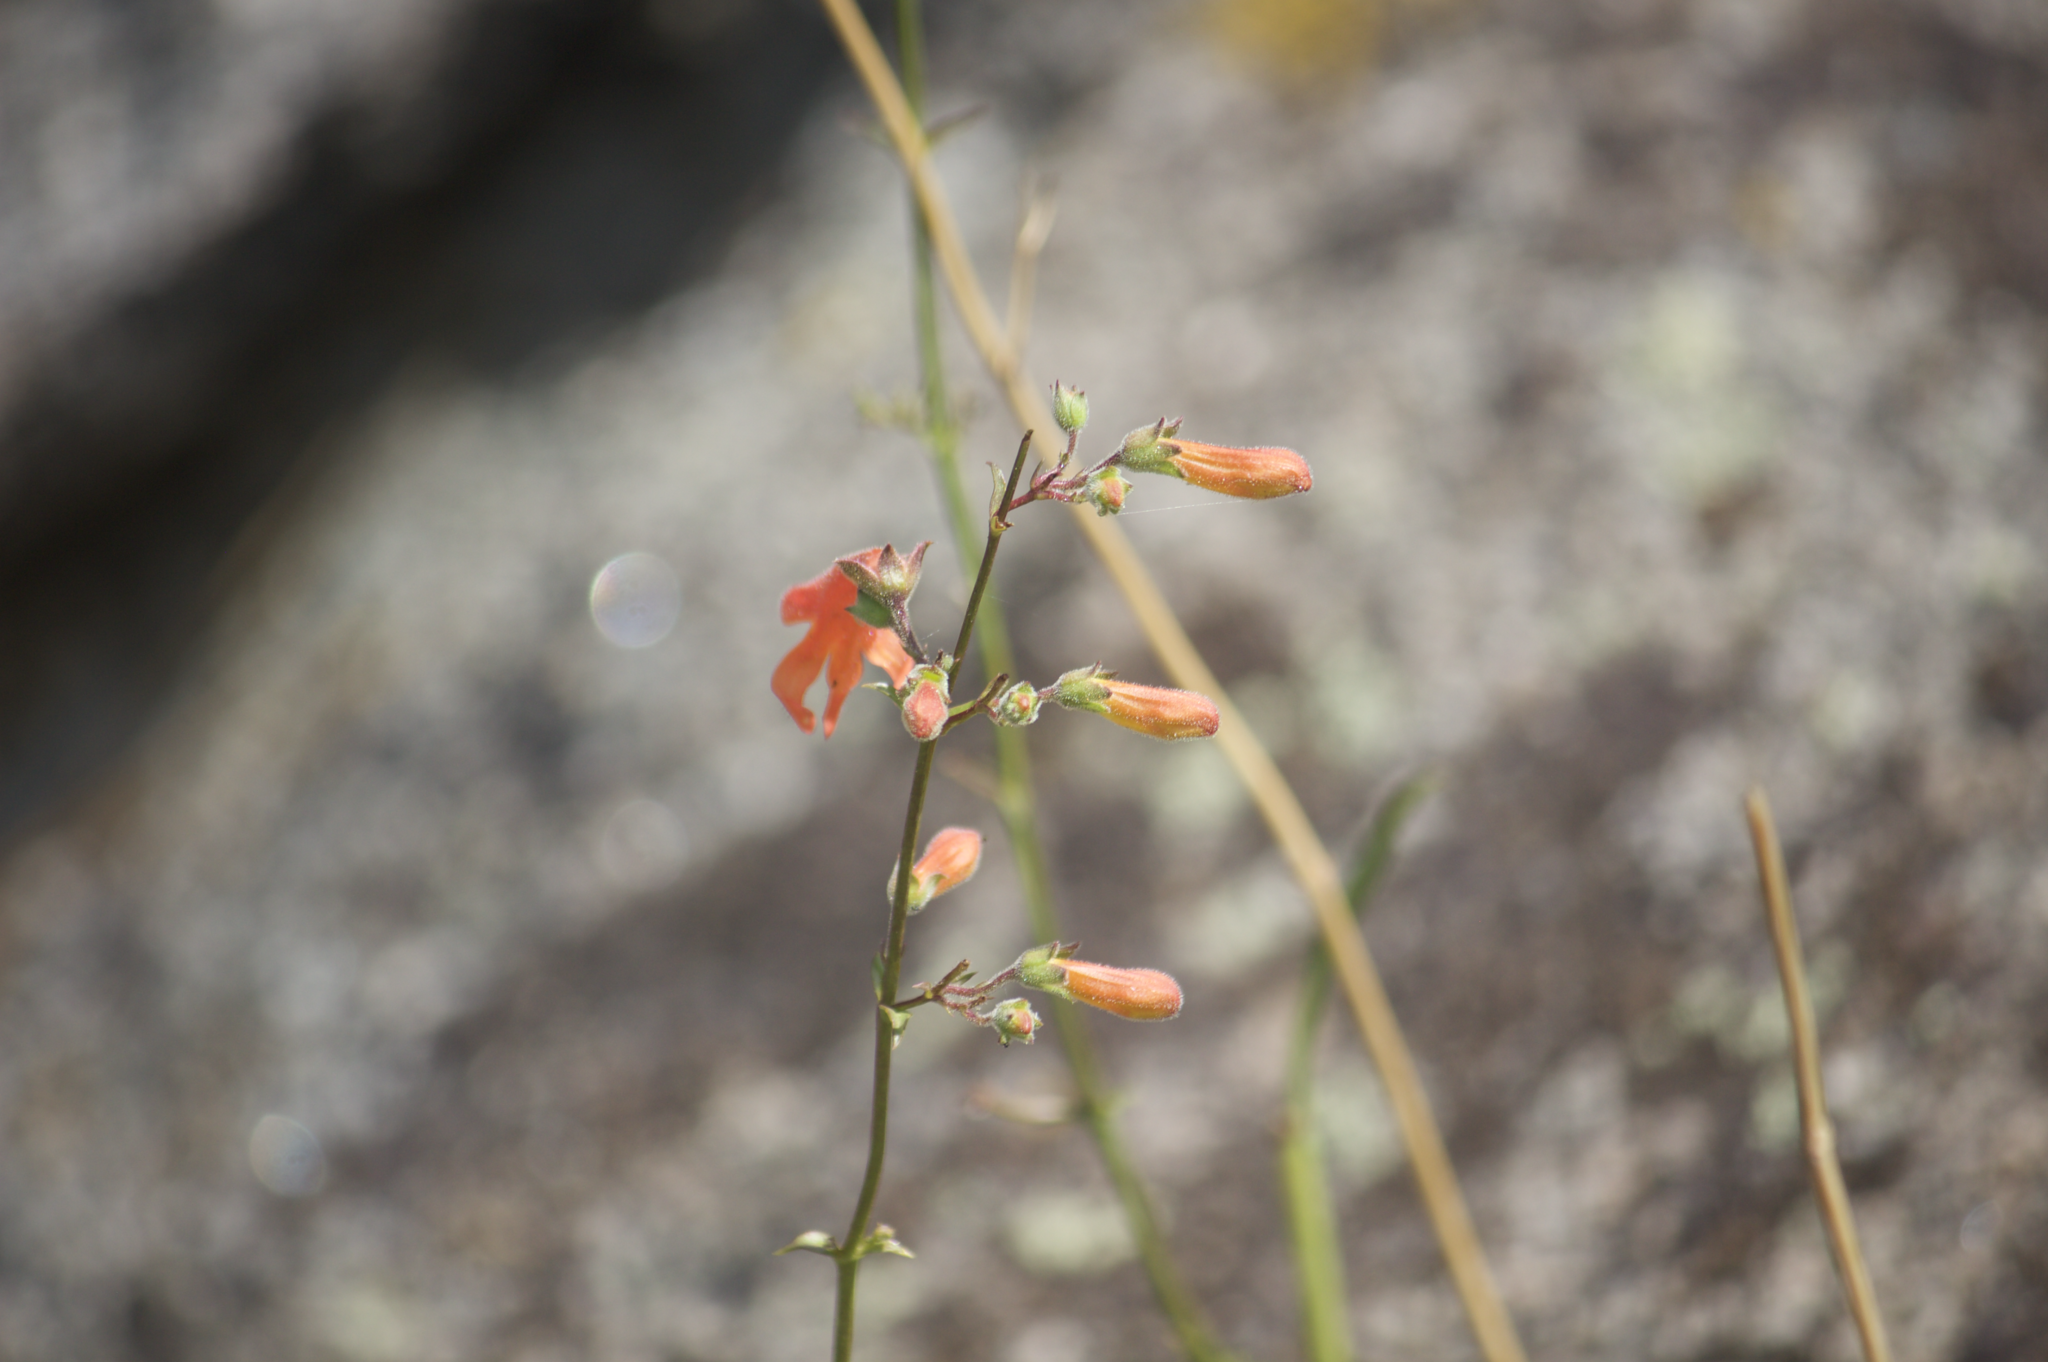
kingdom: Plantae
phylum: Tracheophyta
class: Magnoliopsida
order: Lamiales
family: Plantaginaceae
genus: Penstemon
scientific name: Penstemon rostriflorus
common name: Bridges's penstemon
